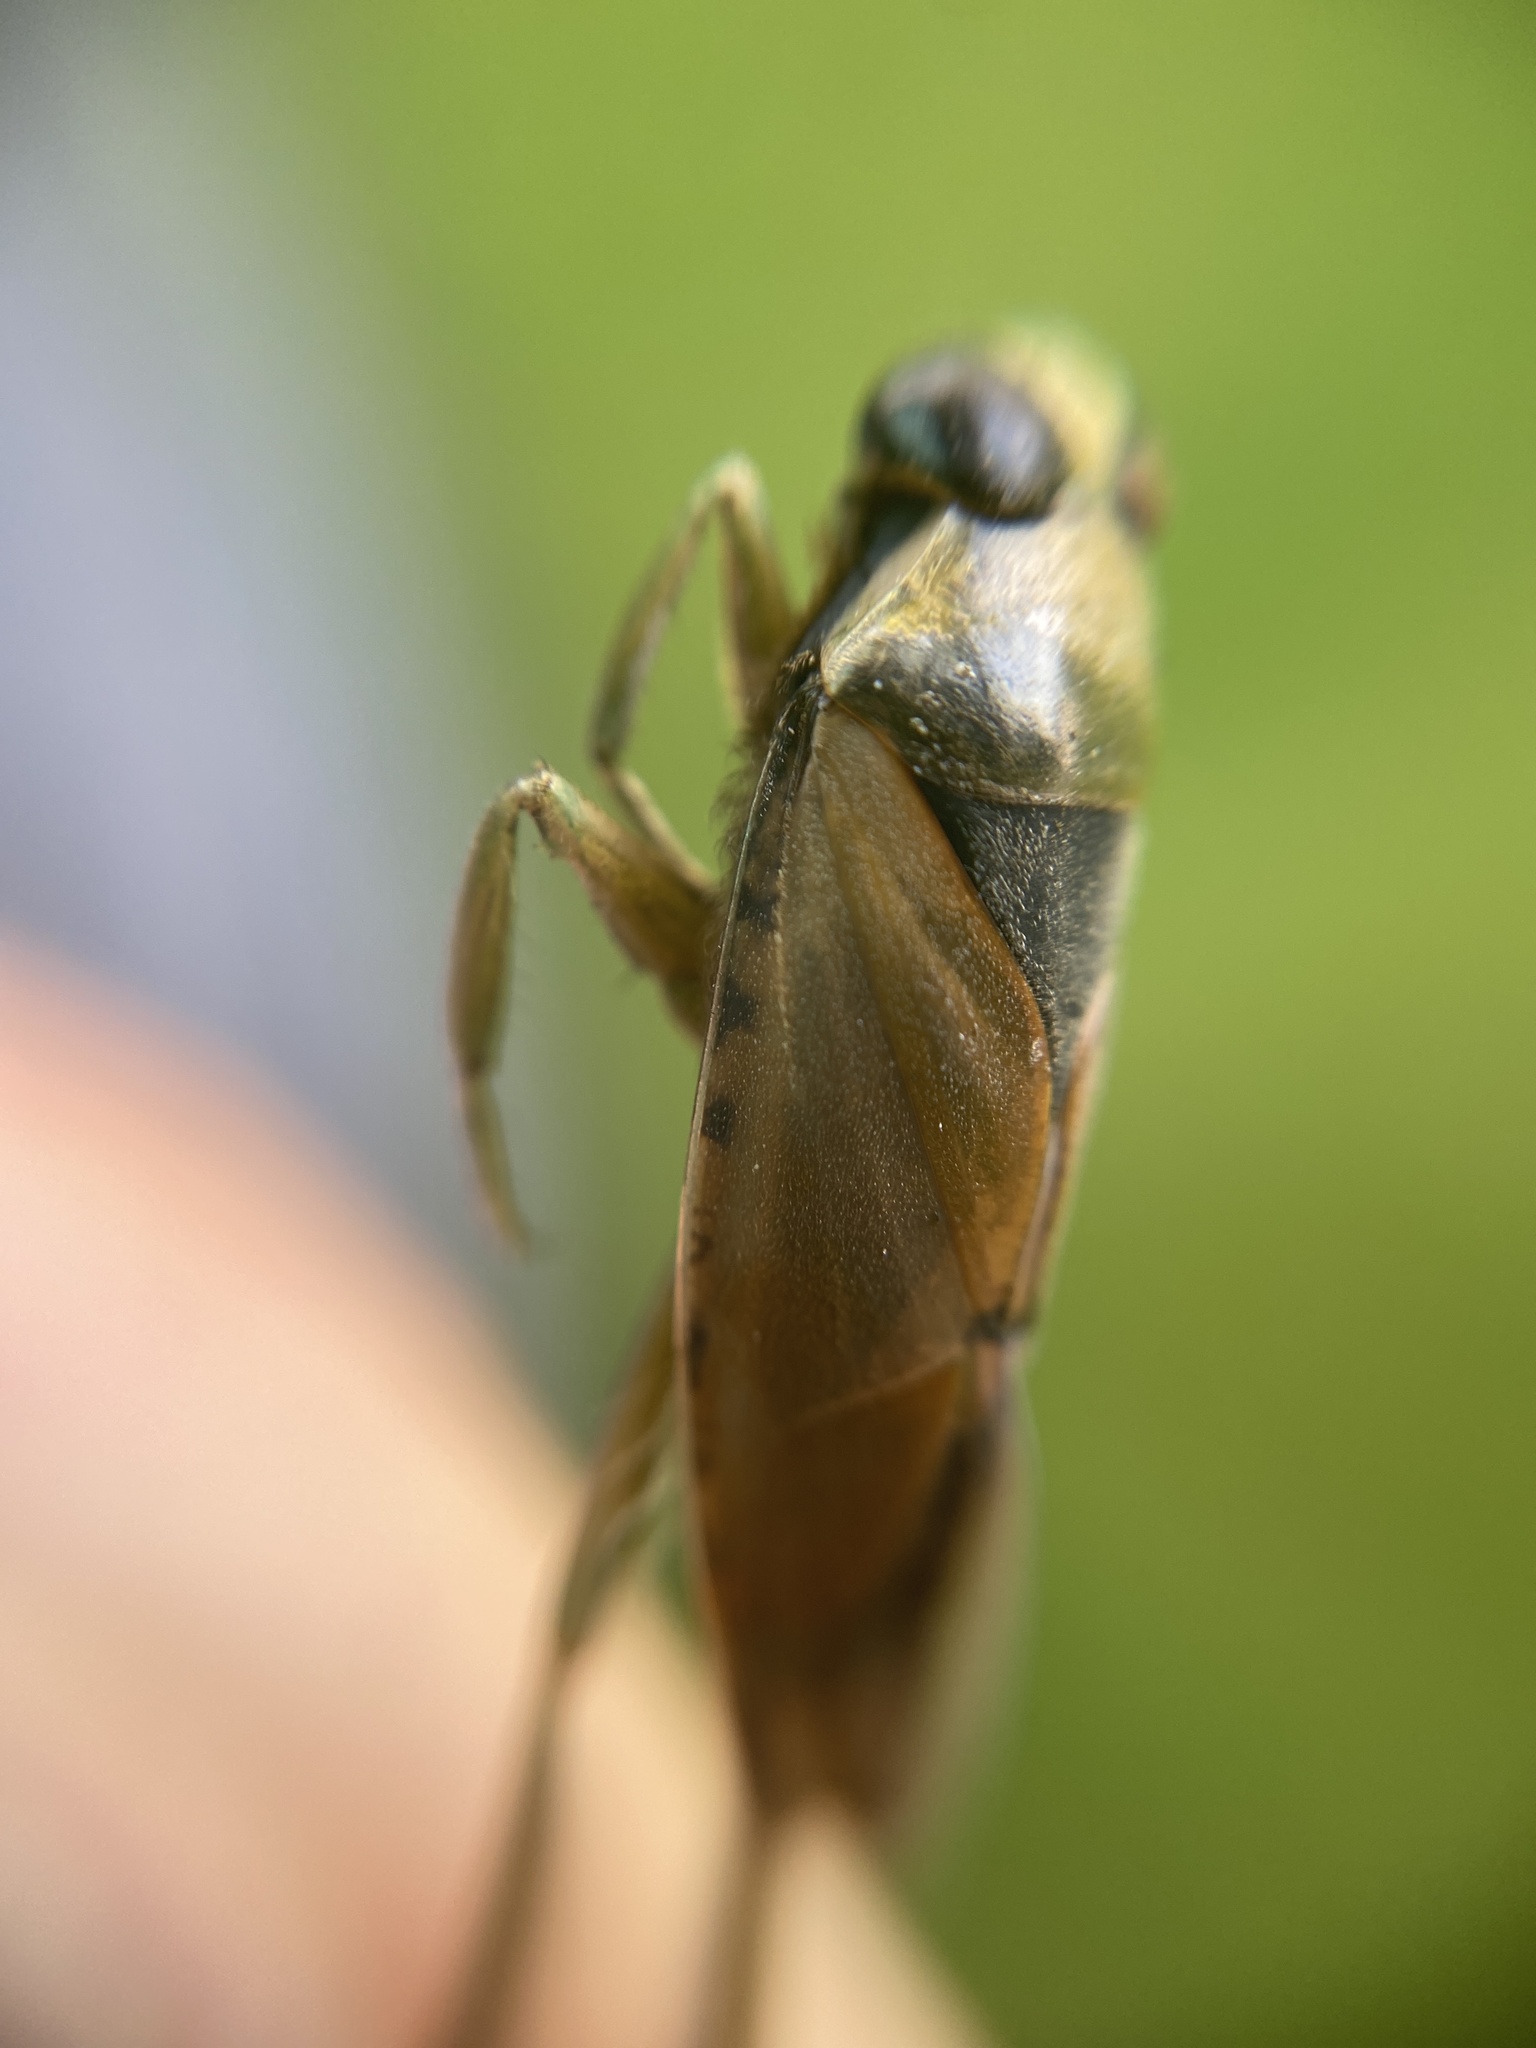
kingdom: Animalia
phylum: Arthropoda
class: Insecta
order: Hemiptera
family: Notonectidae
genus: Notonecta
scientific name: Notonecta glauca
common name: Common water-boatman
